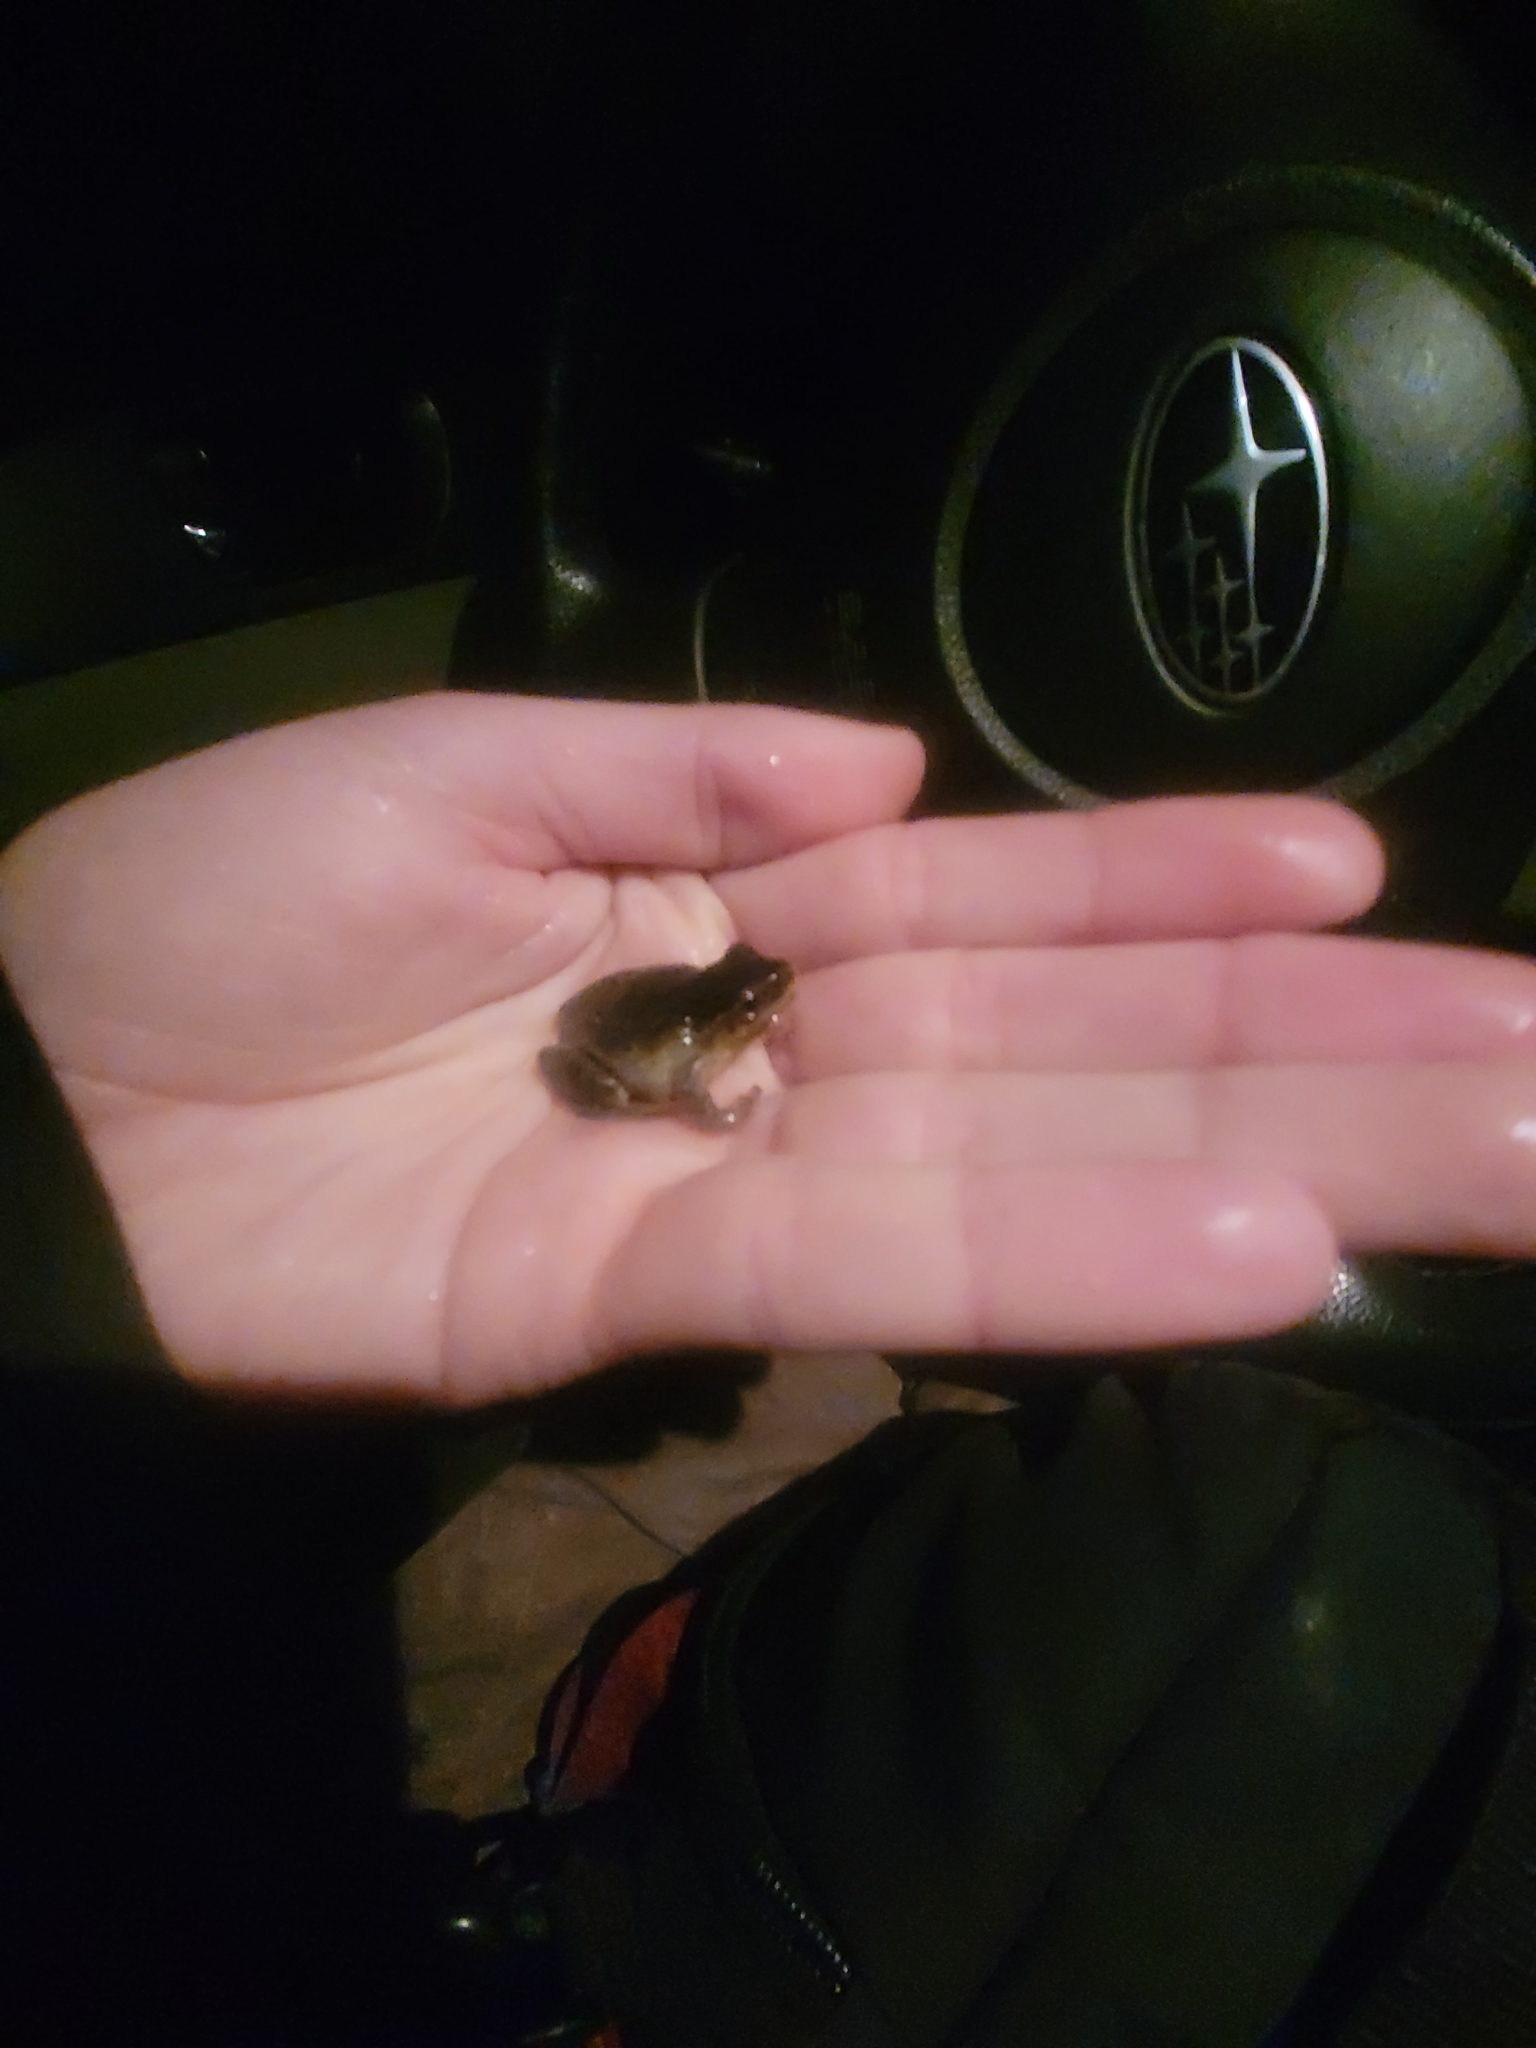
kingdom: Animalia
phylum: Chordata
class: Amphibia
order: Anura
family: Hylidae
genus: Pseudacris
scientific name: Pseudacris crucifer
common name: Spring peeper
